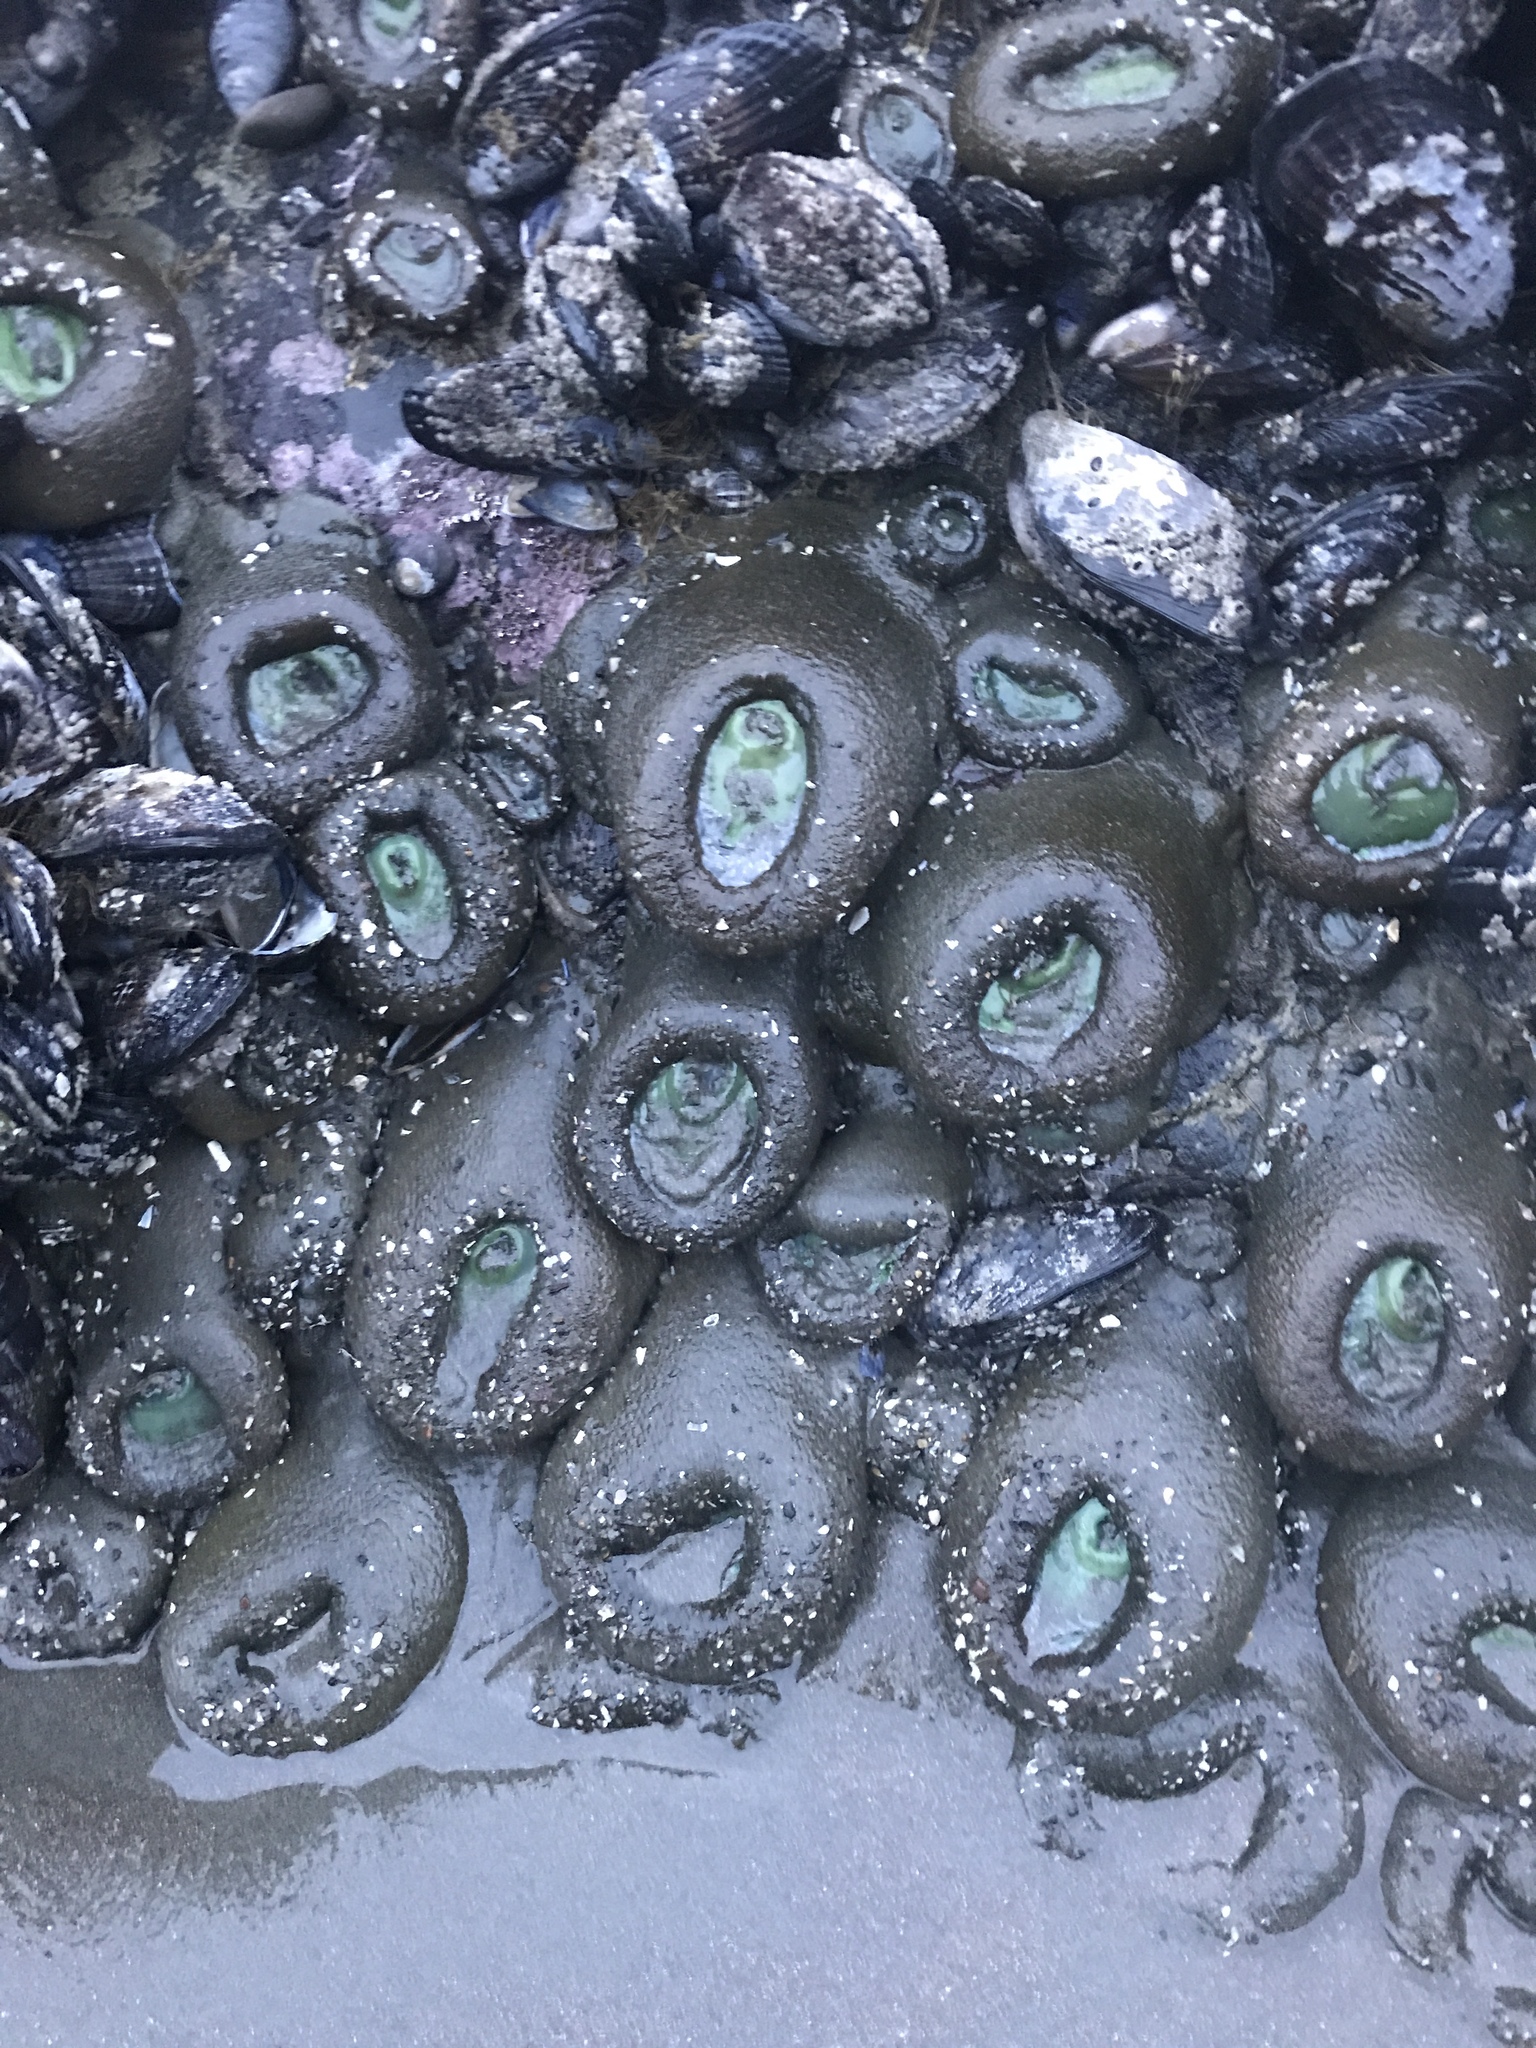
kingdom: Animalia
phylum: Cnidaria
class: Anthozoa
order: Actiniaria
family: Actiniidae
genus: Anthopleura
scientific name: Anthopleura xanthogrammica
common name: Giant green anemone
